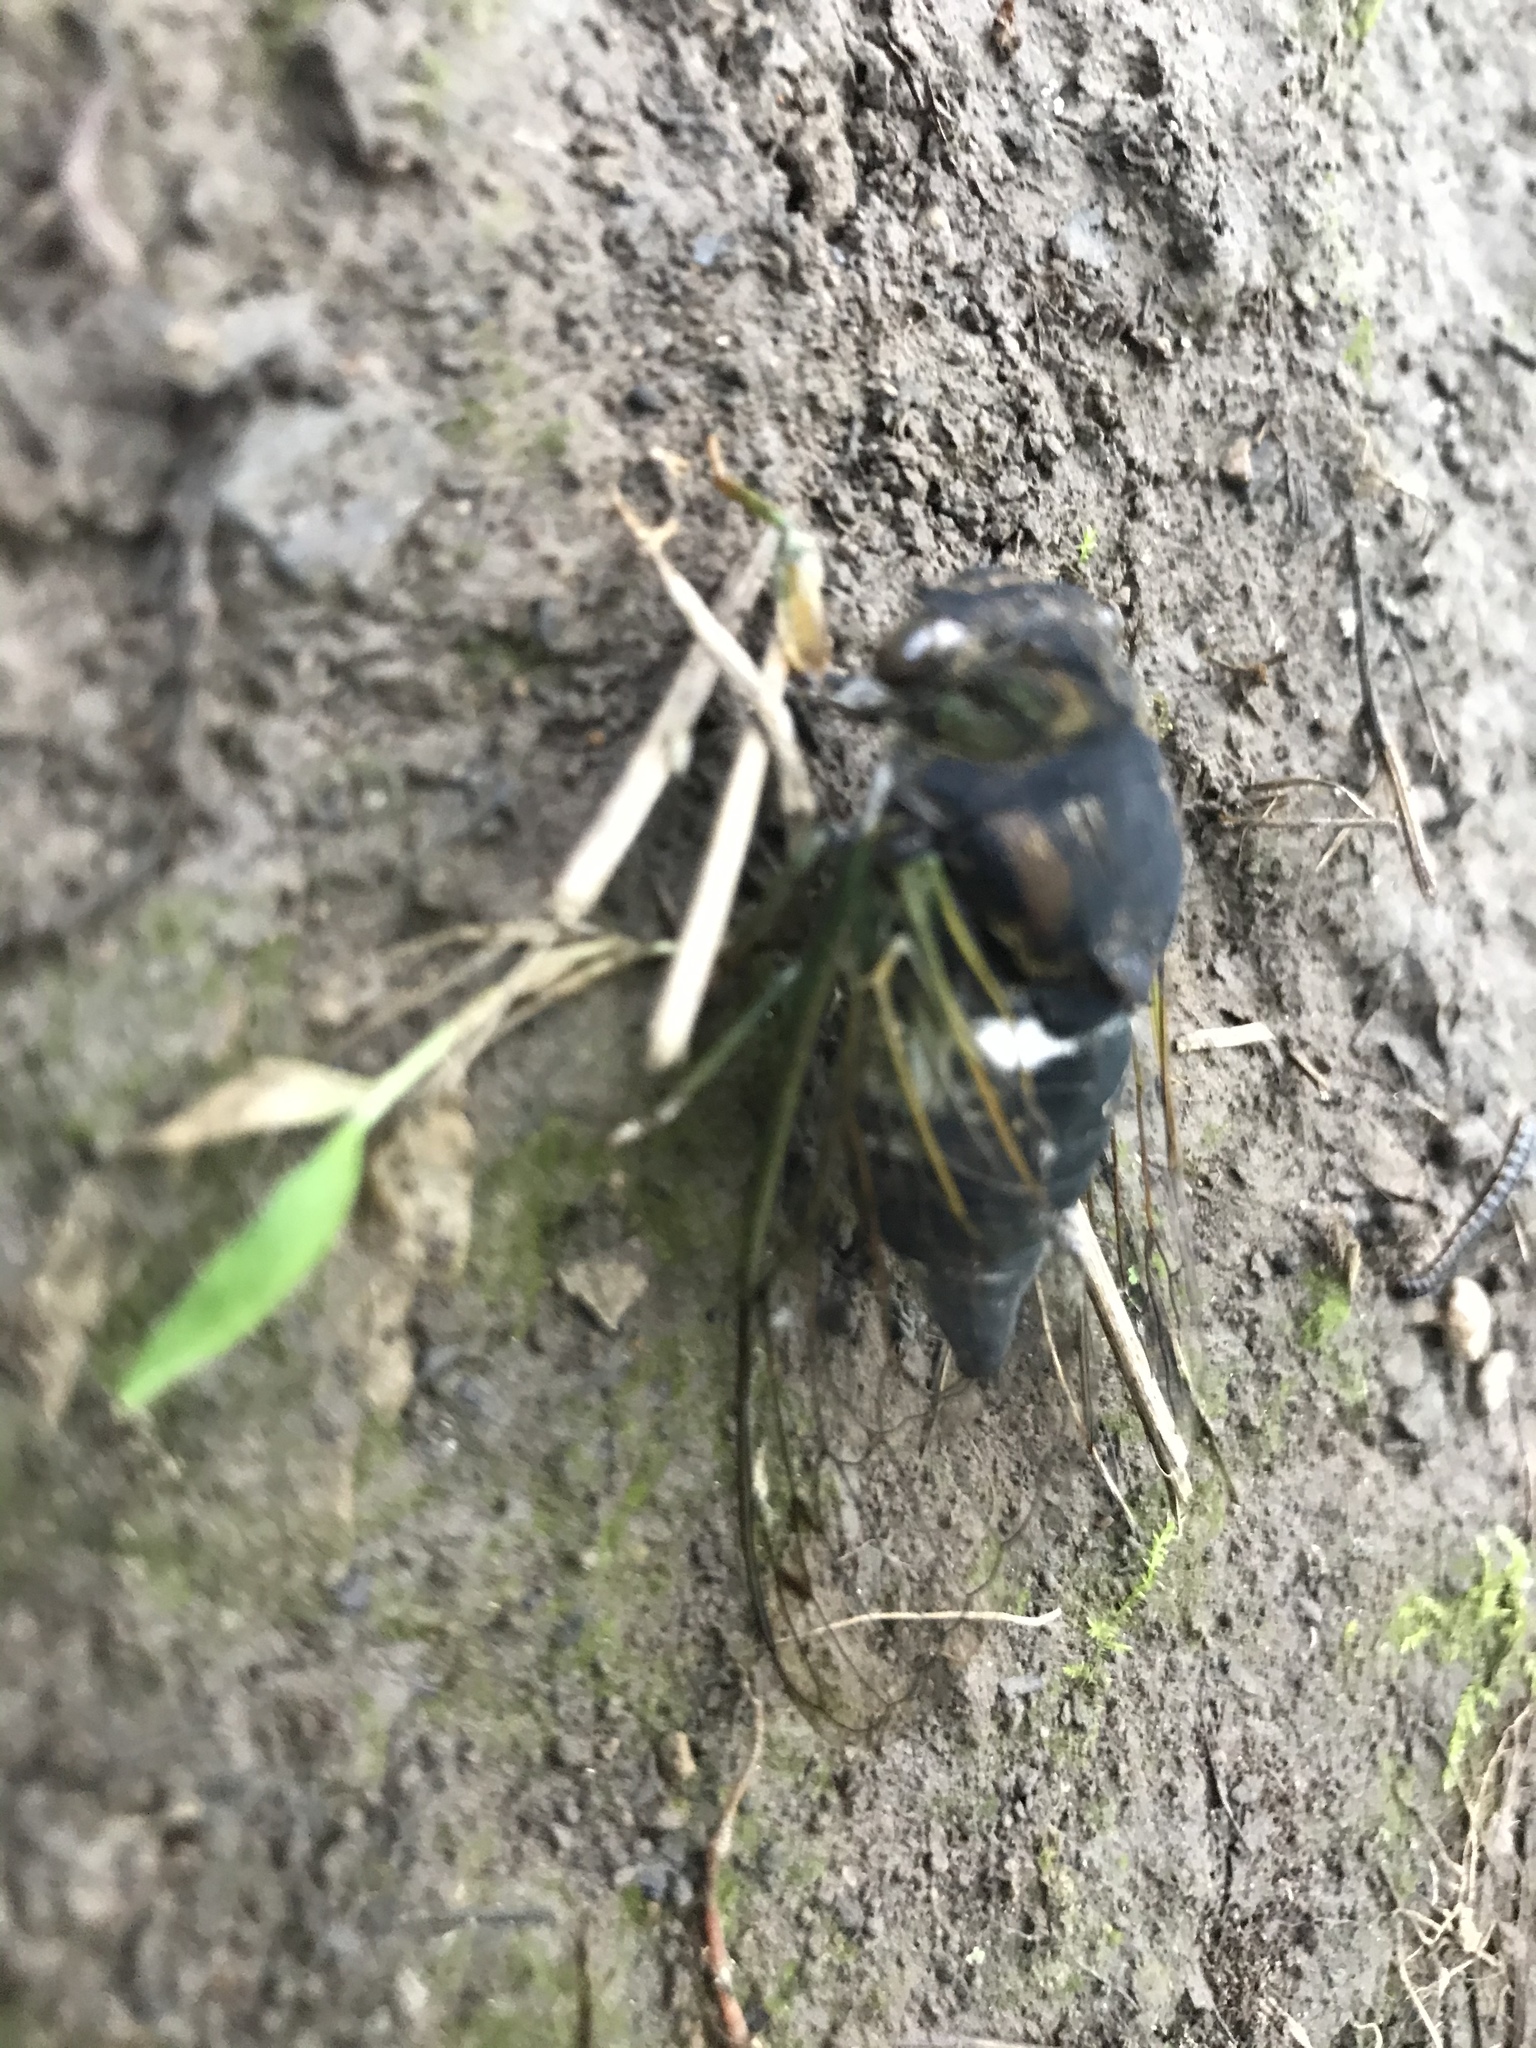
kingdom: Animalia
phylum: Arthropoda
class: Insecta
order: Hemiptera
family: Cicadidae
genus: Neotibicen
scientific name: Neotibicen tibicen
